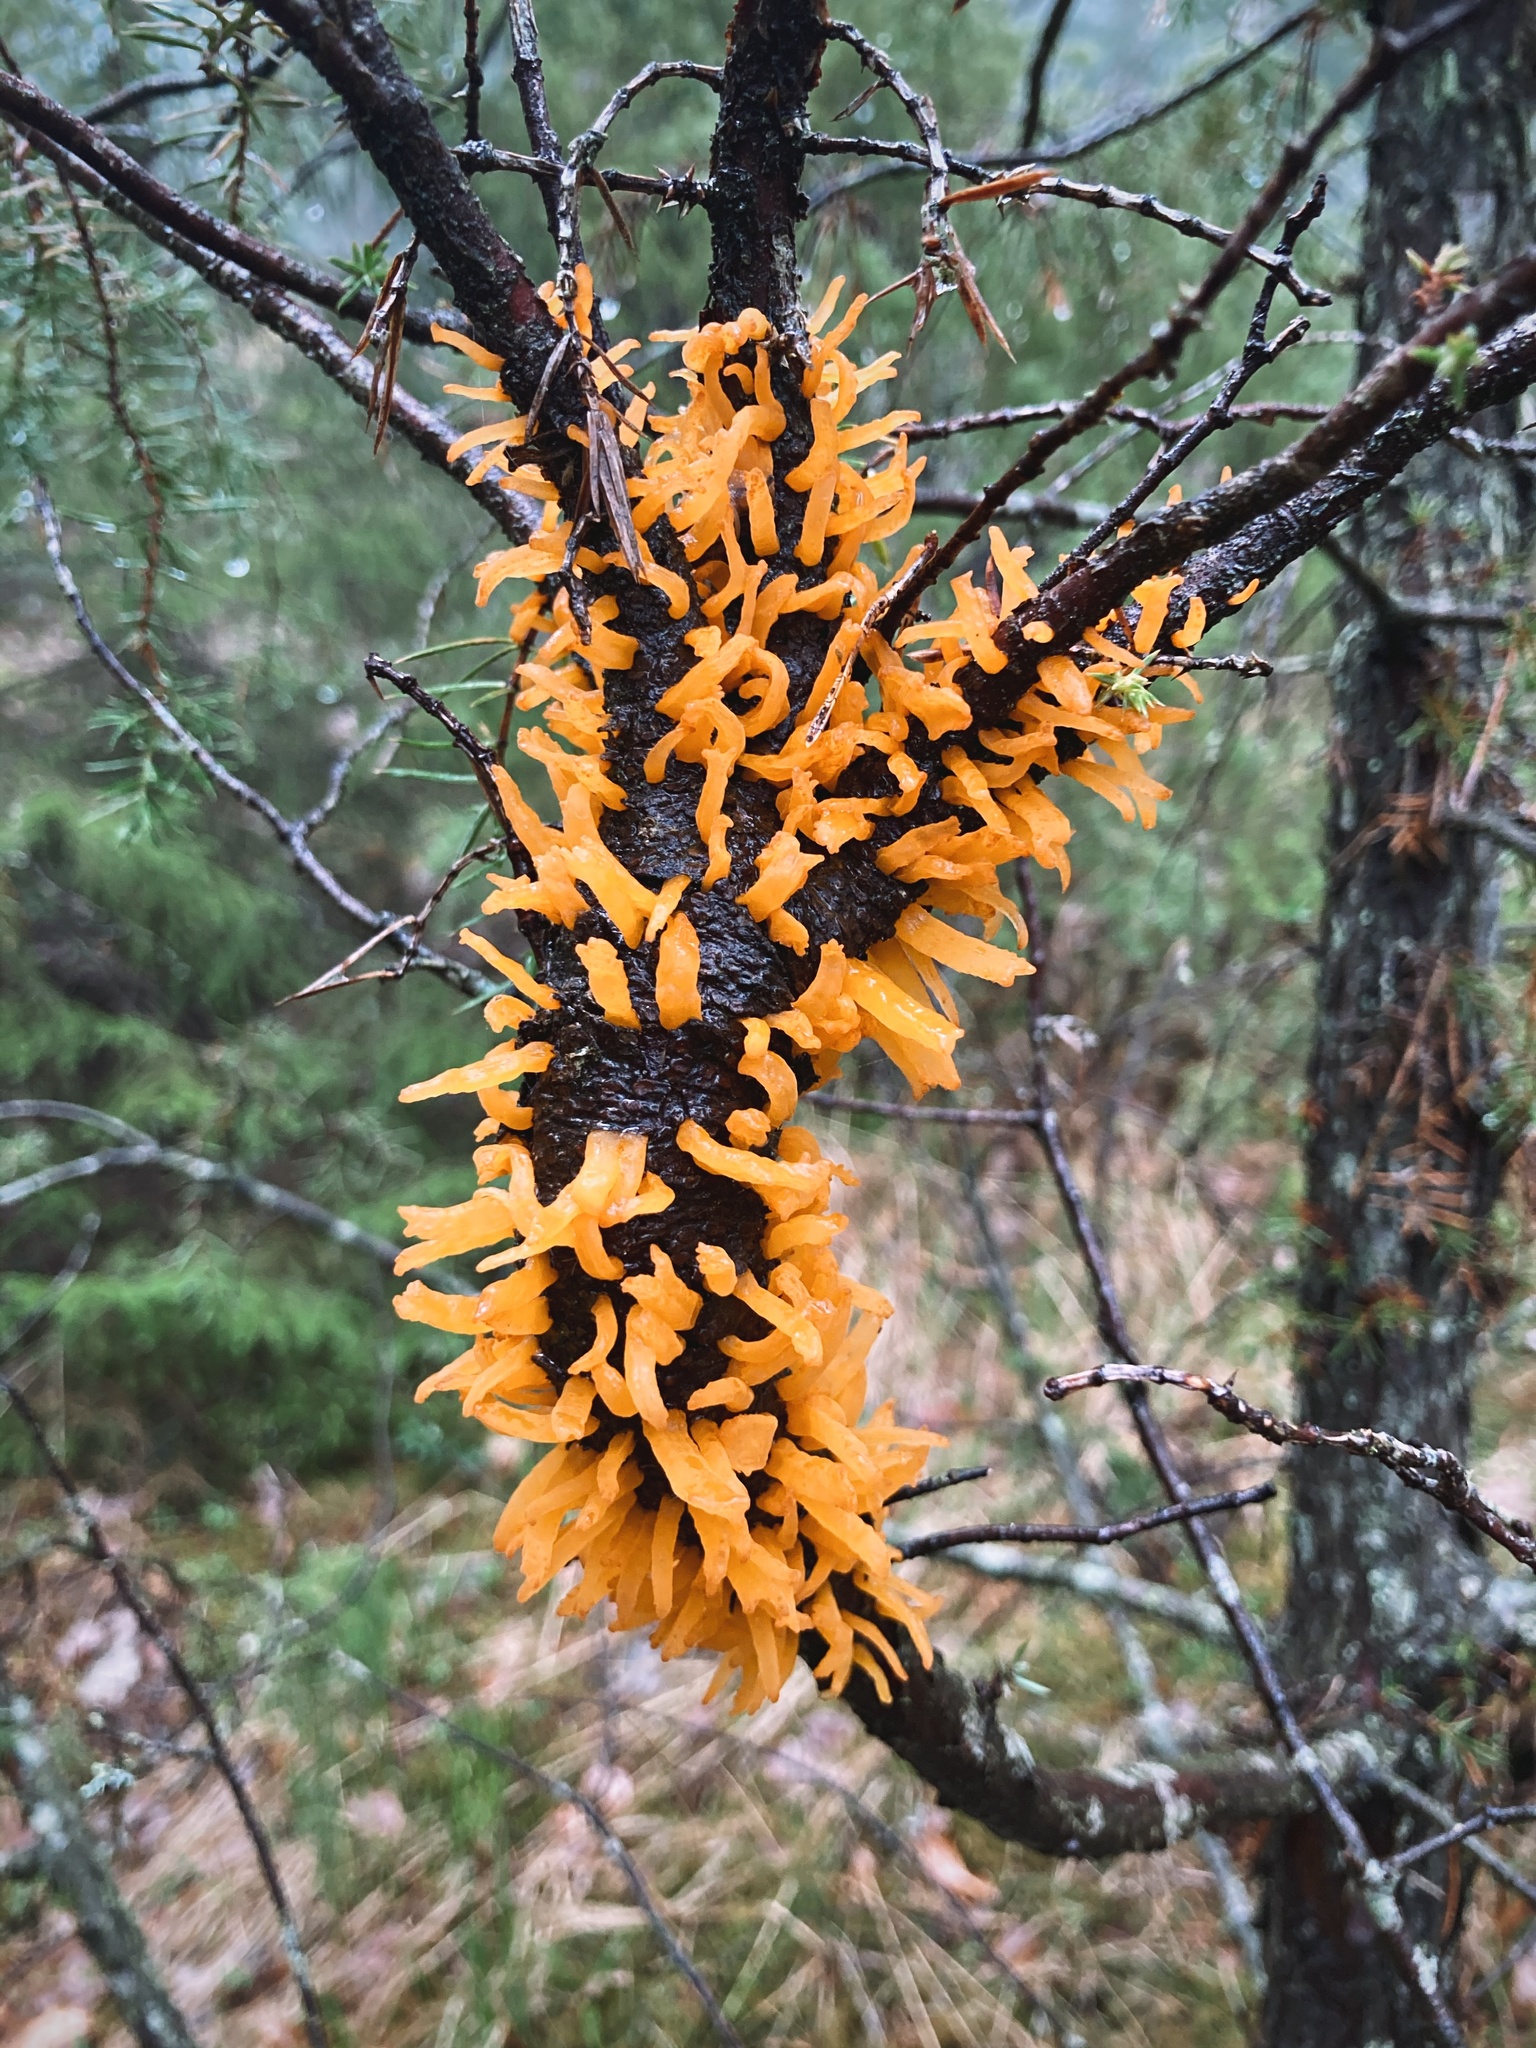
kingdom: Fungi
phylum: Basidiomycota
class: Pucciniomycetes
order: Pucciniales
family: Gymnosporangiaceae
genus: Gymnosporangium
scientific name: Gymnosporangium clavariiforme
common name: Tongues of fire
